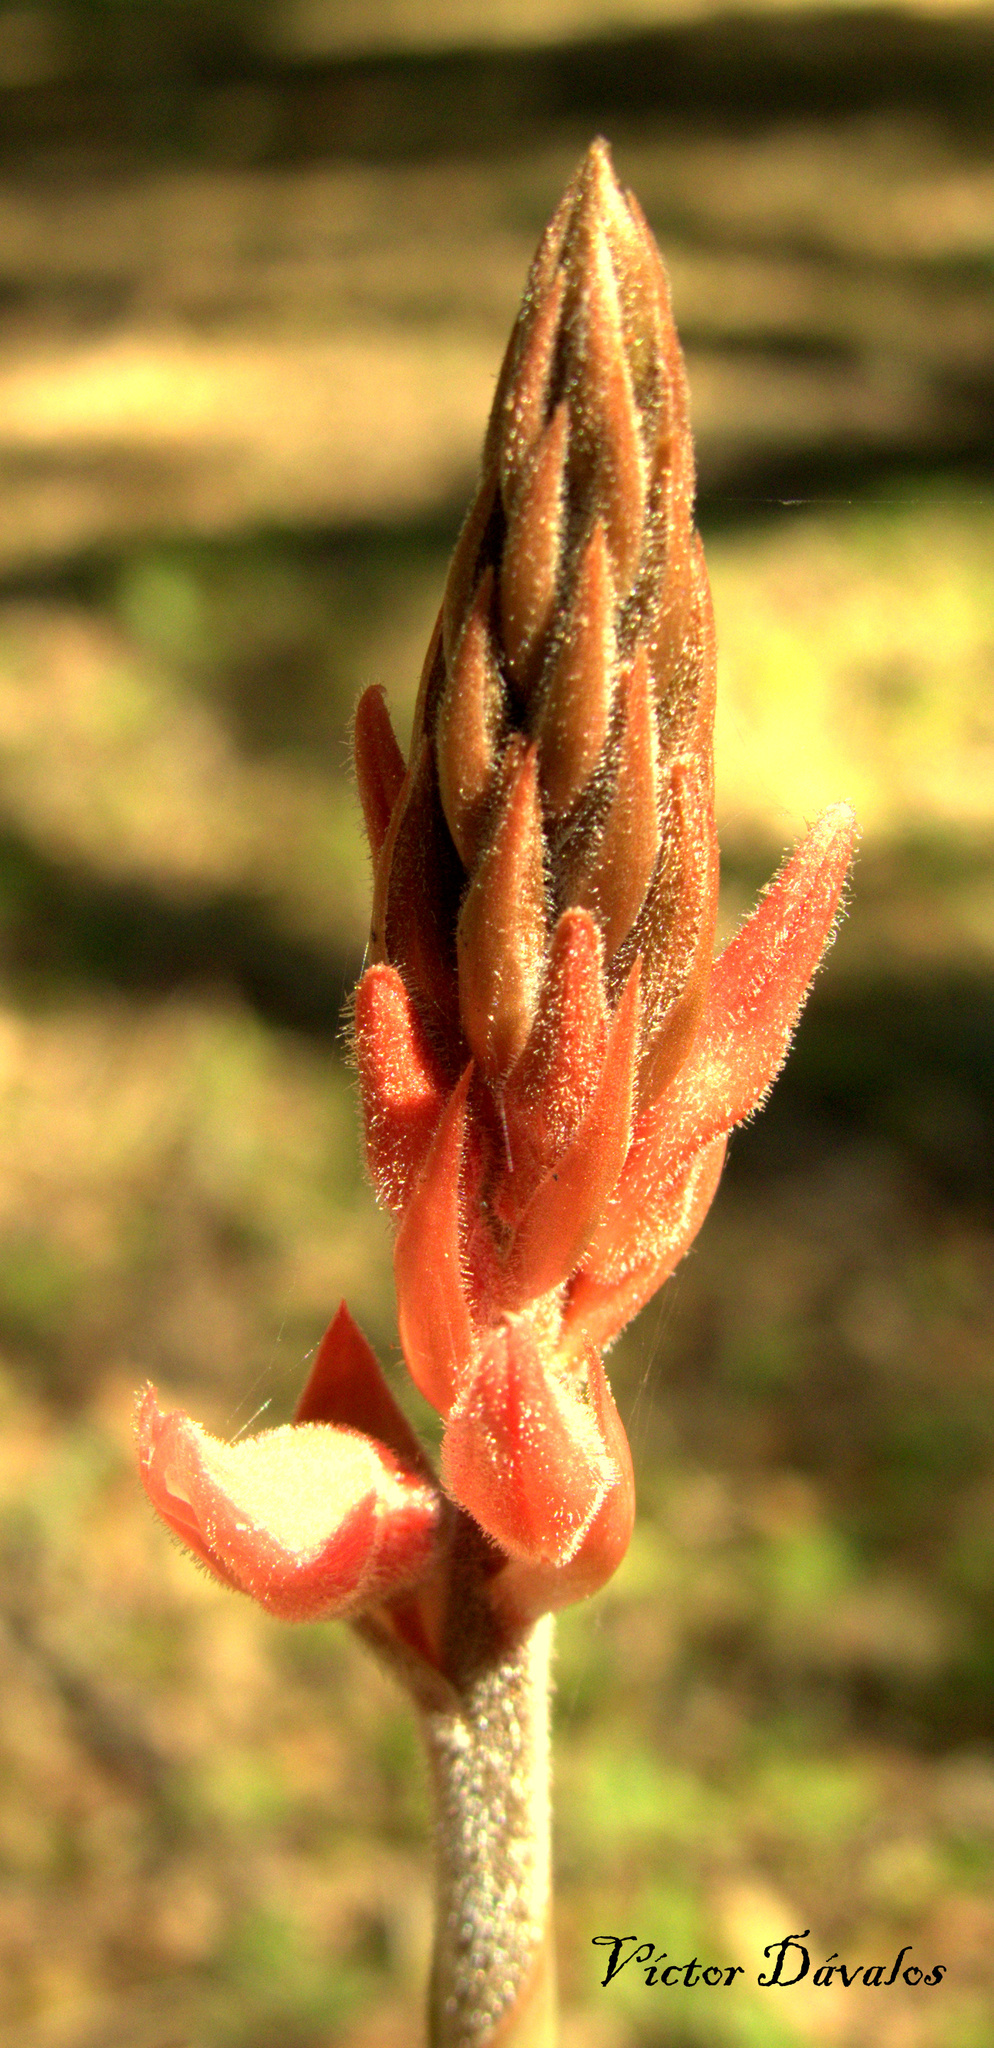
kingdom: Plantae
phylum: Tracheophyta
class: Liliopsida
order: Asparagales
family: Orchidaceae
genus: Sacoila
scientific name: Sacoila lanceolata
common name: Leafless beaked ladiestresses
